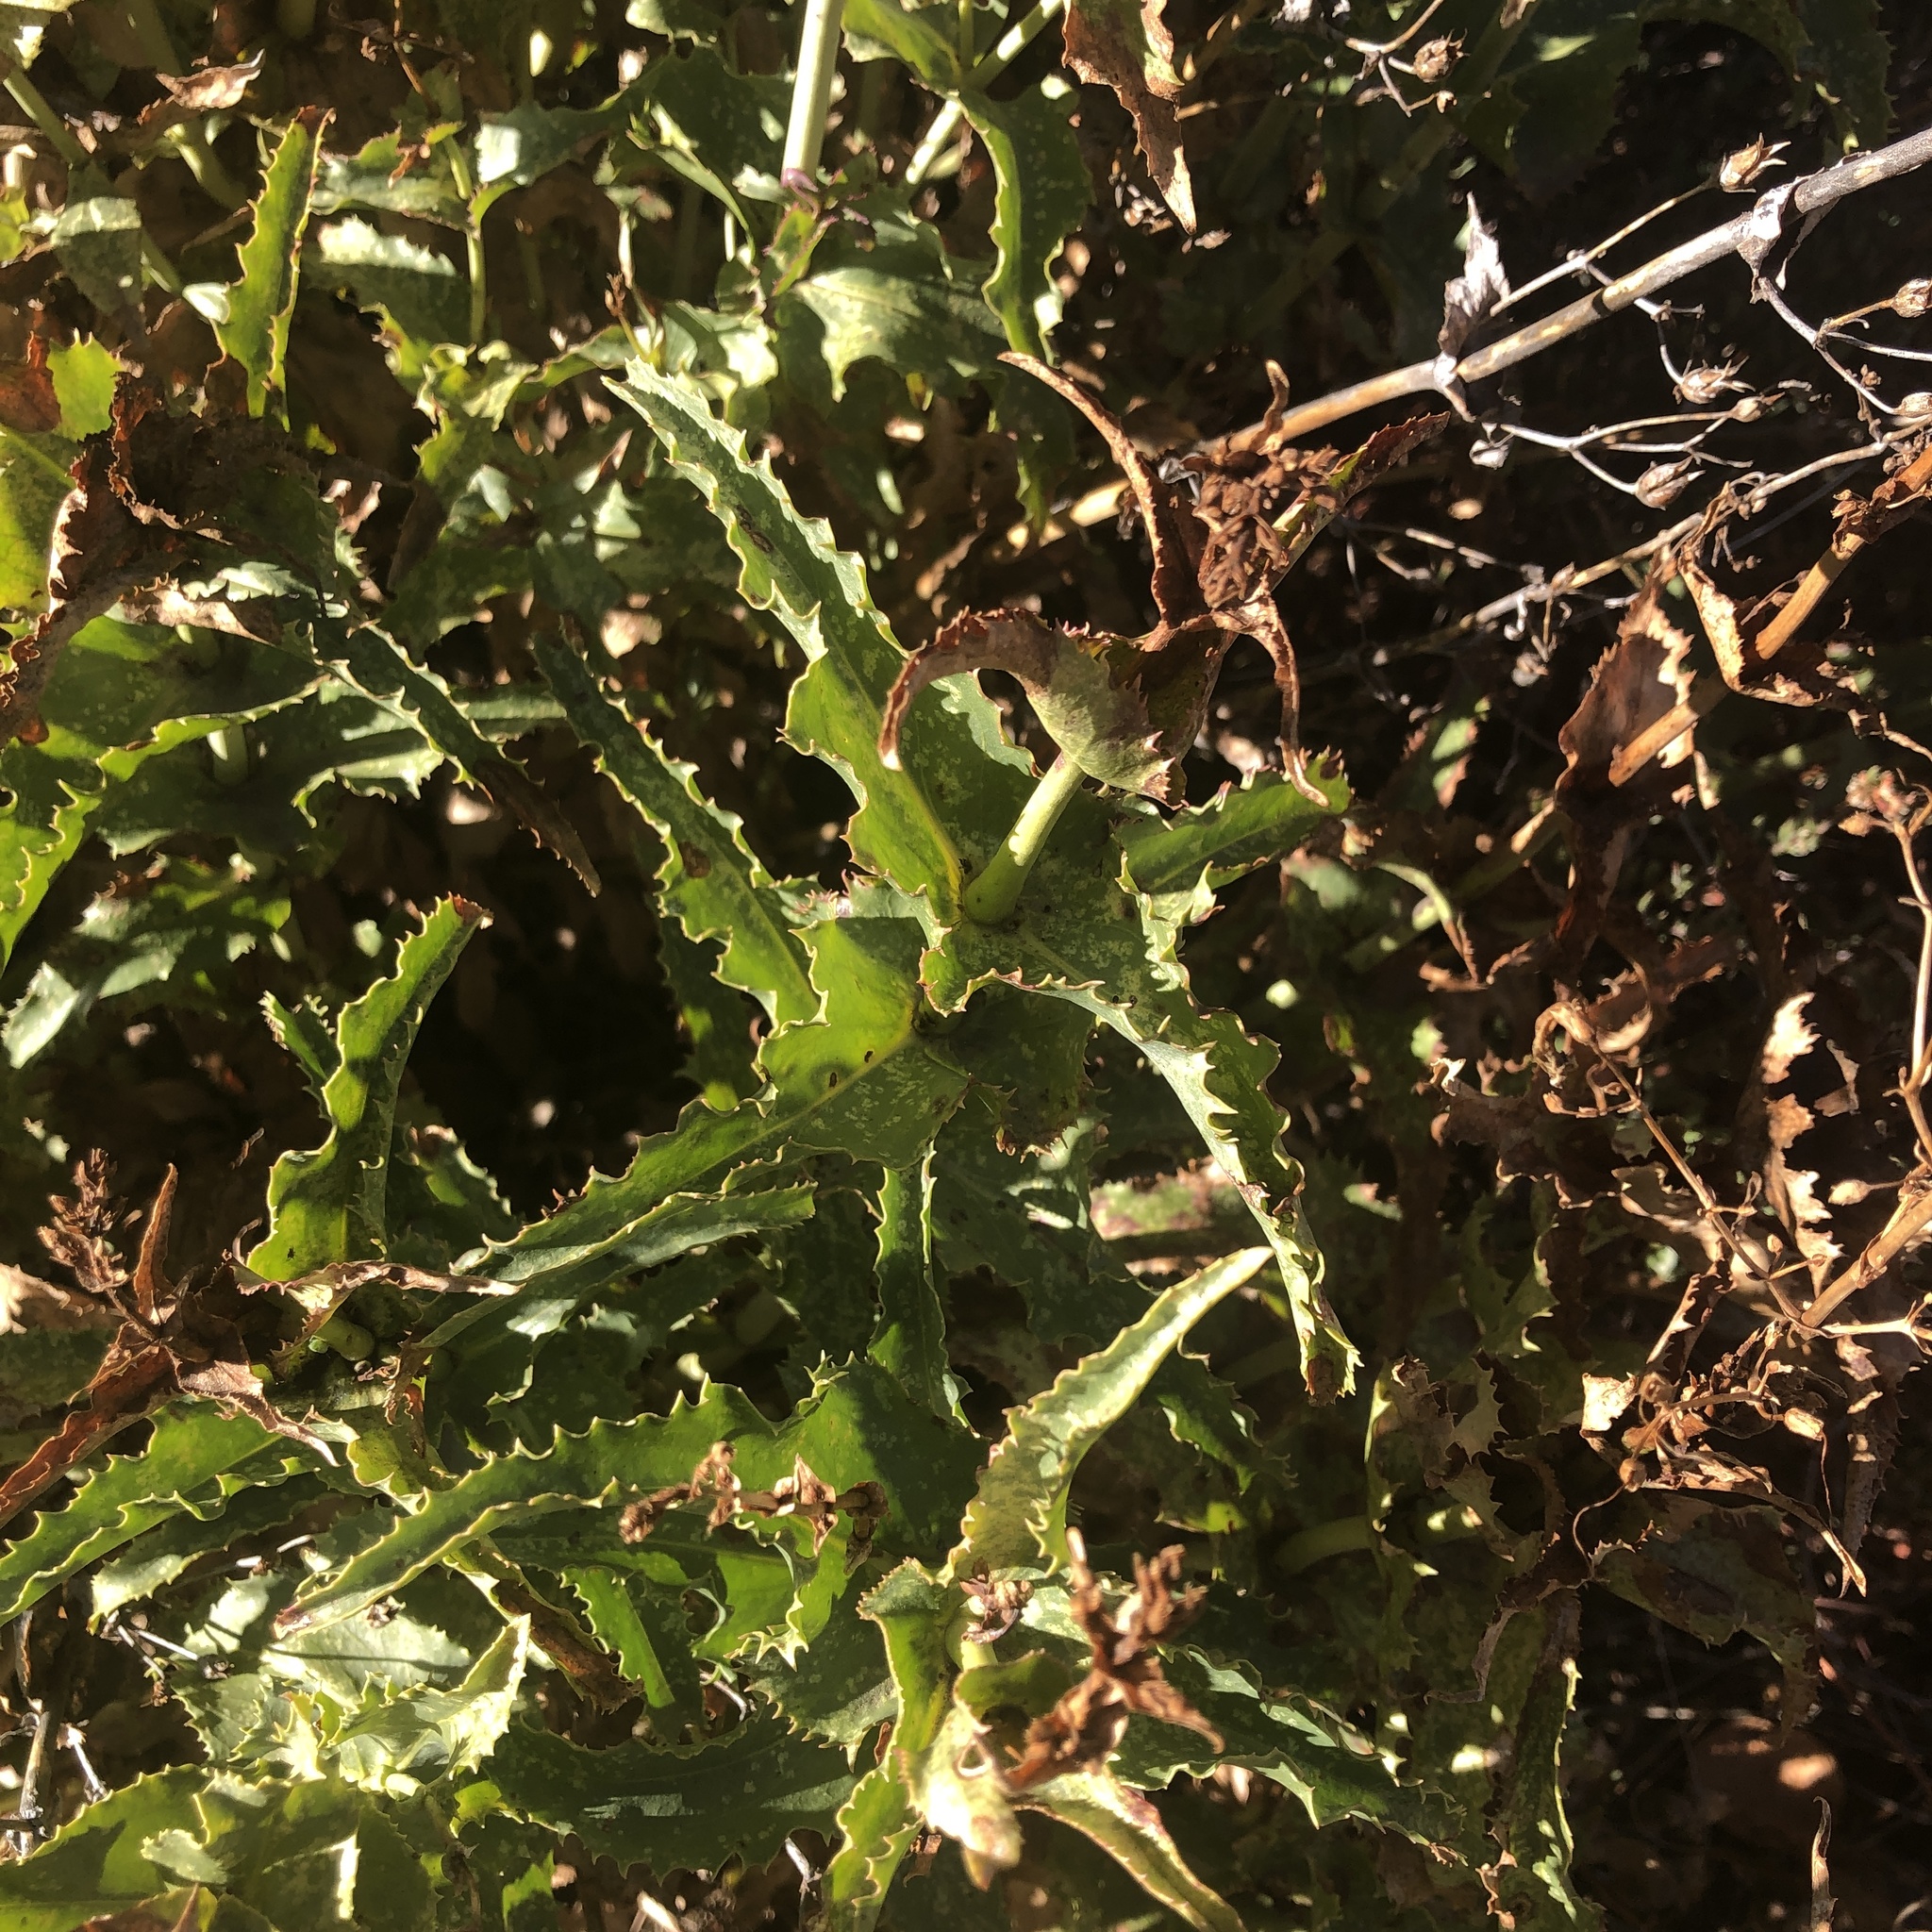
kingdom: Plantae
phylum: Tracheophyta
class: Magnoliopsida
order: Lamiales
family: Plantaginaceae
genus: Penstemon
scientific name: Penstemon spectabilis
